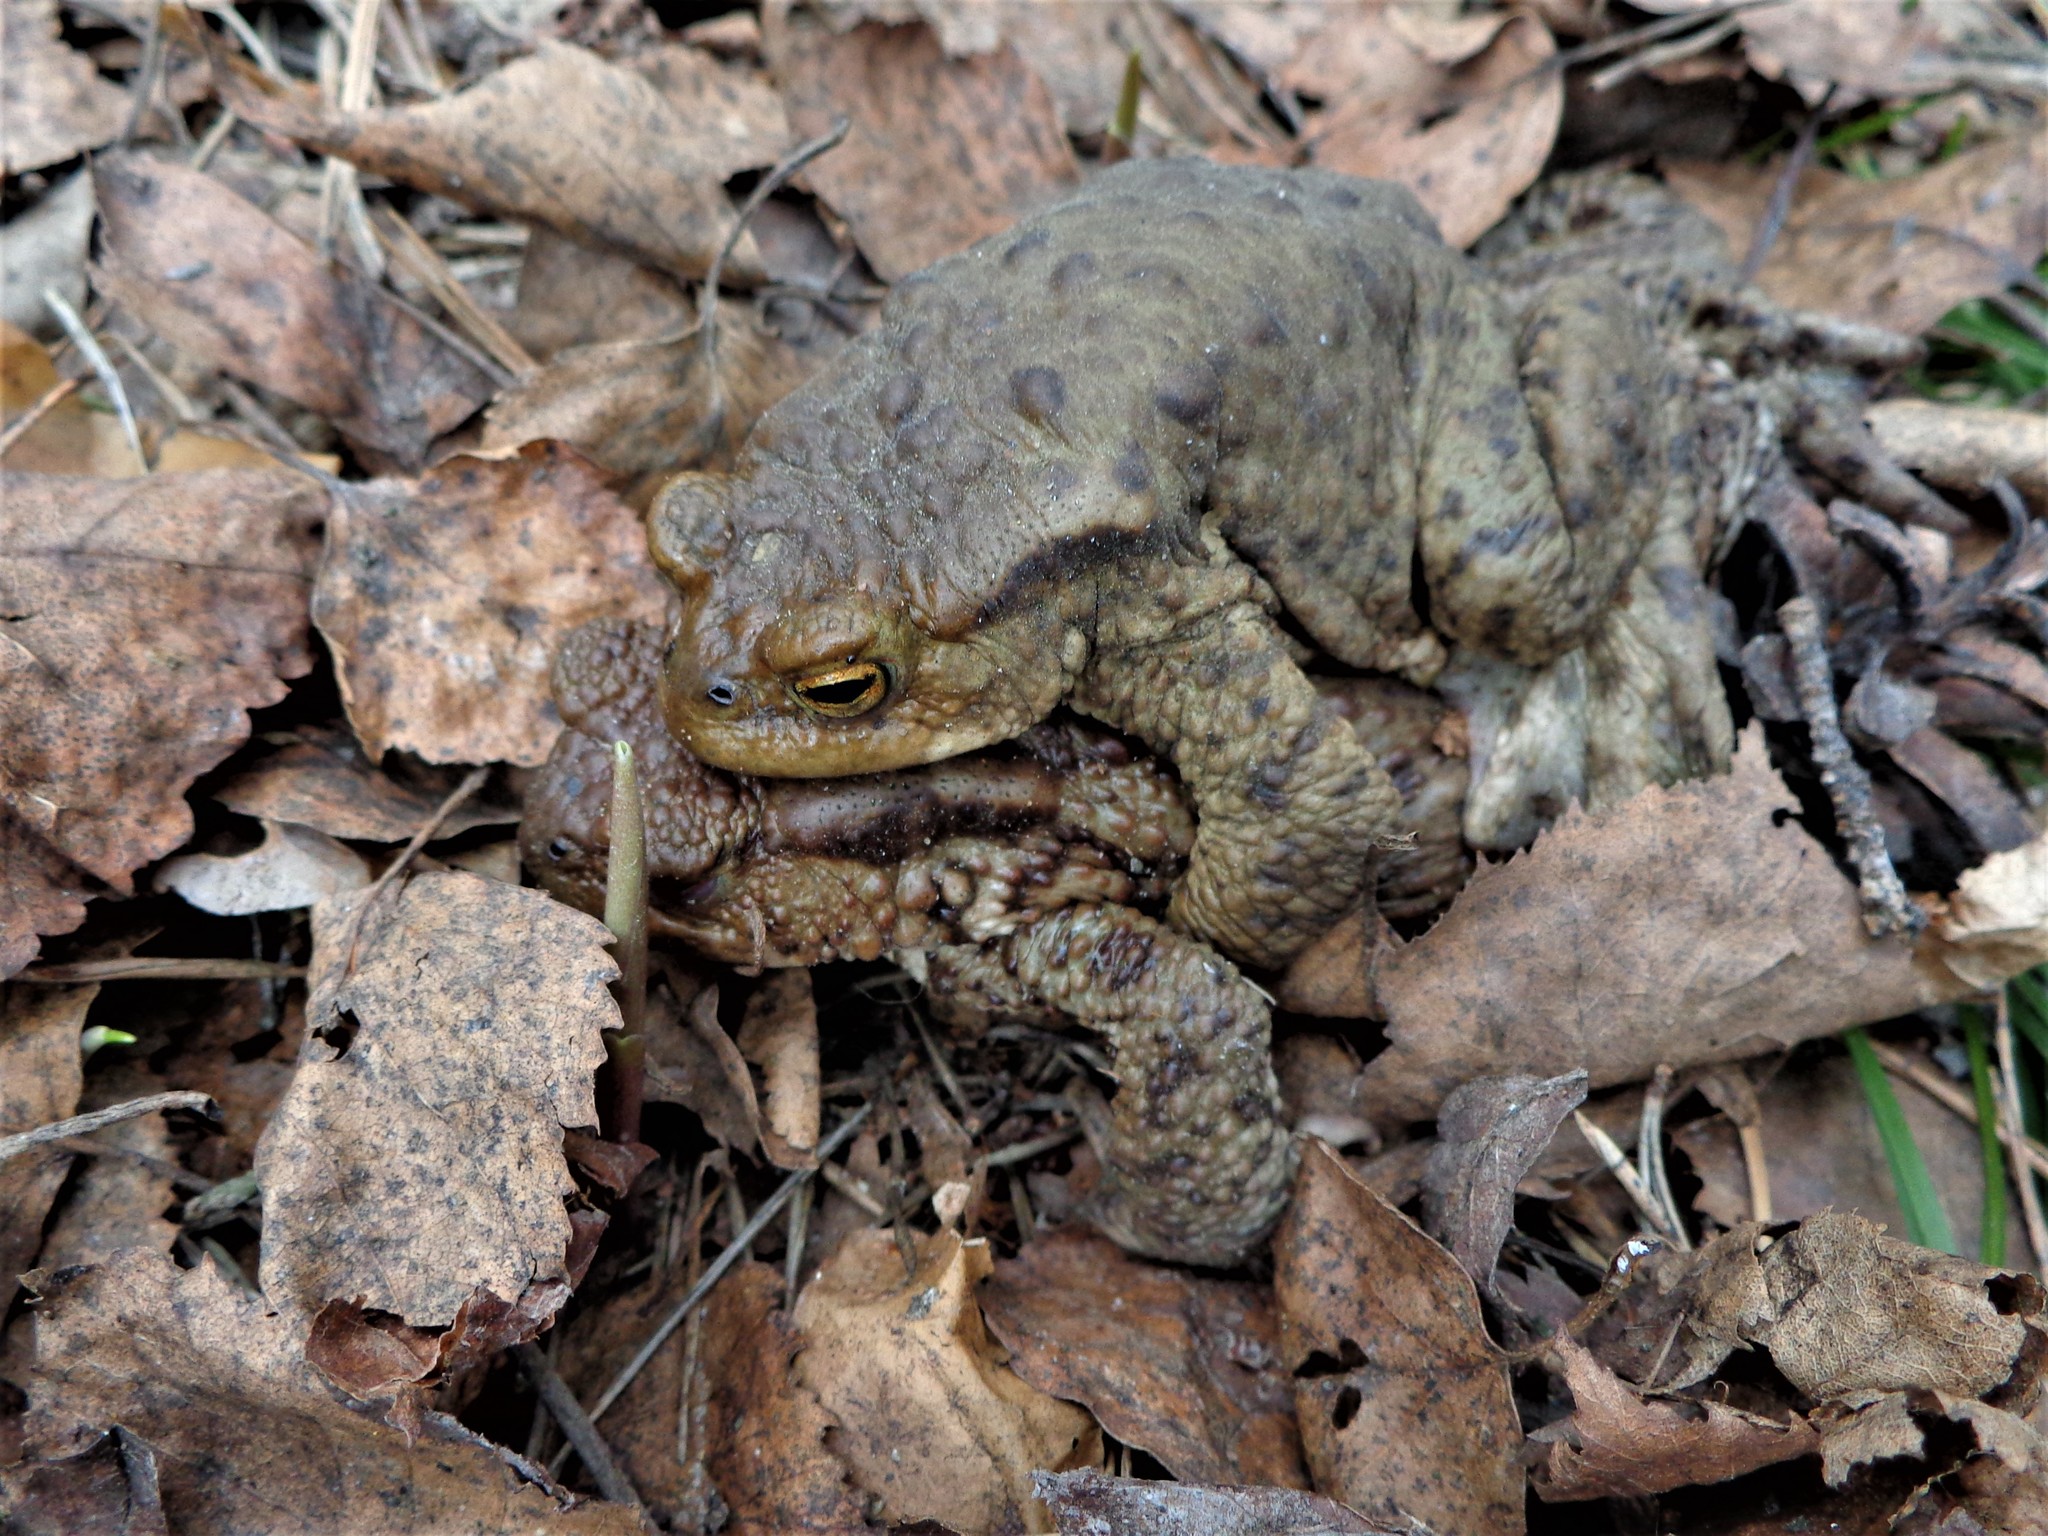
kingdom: Animalia
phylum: Chordata
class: Amphibia
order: Anura
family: Bufonidae
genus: Bufo
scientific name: Bufo bufo
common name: Common toad
